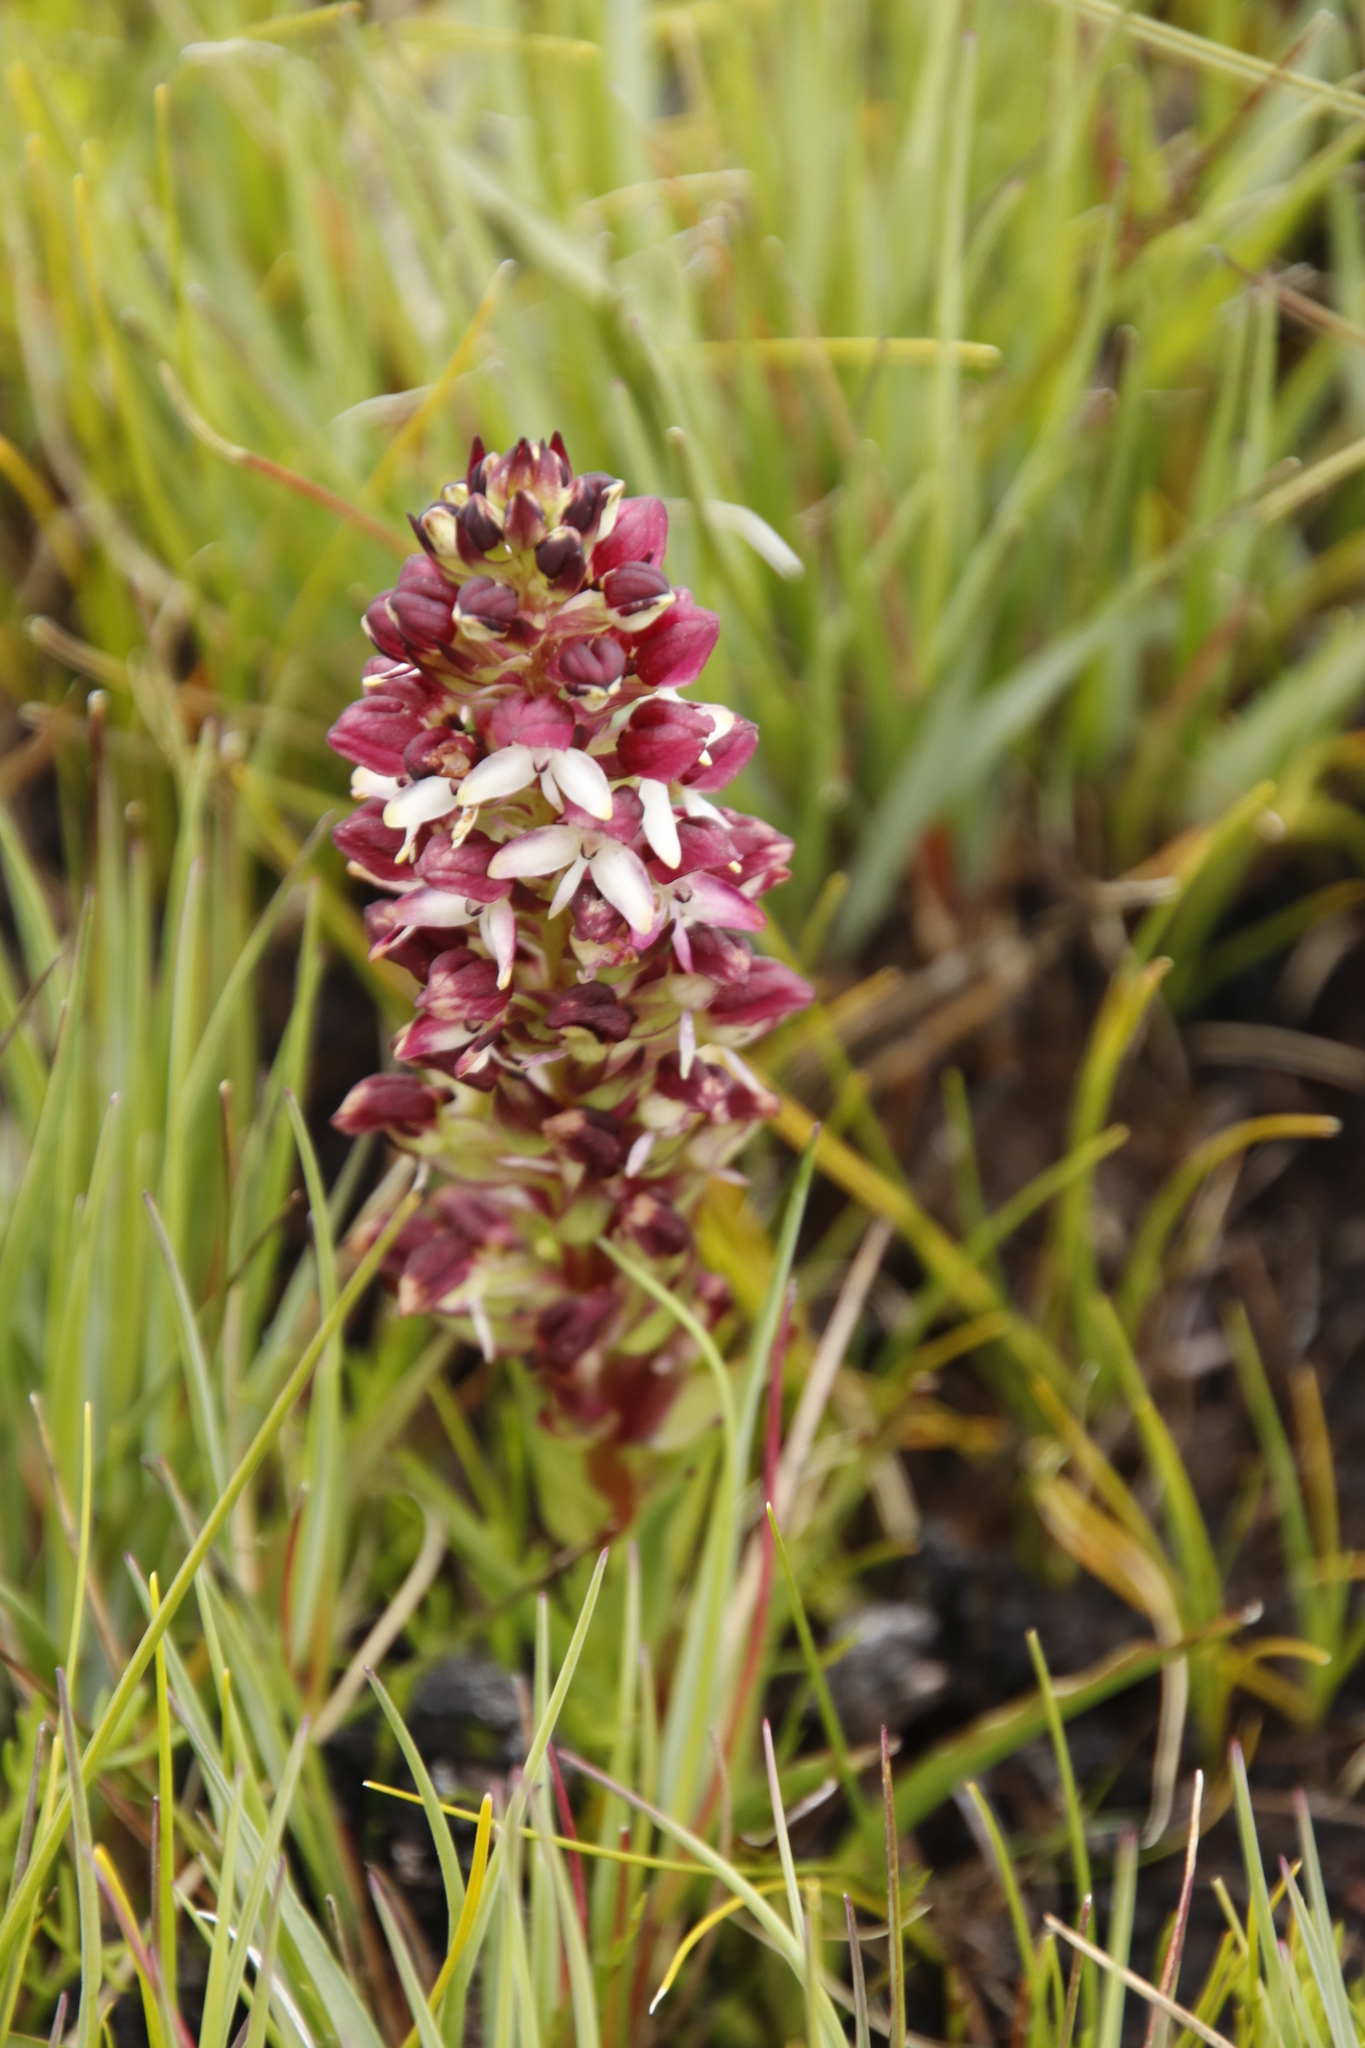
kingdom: Plantae
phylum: Tracheophyta
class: Liliopsida
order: Asparagales
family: Orchidaceae
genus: Disa
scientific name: Disa albomagentea
